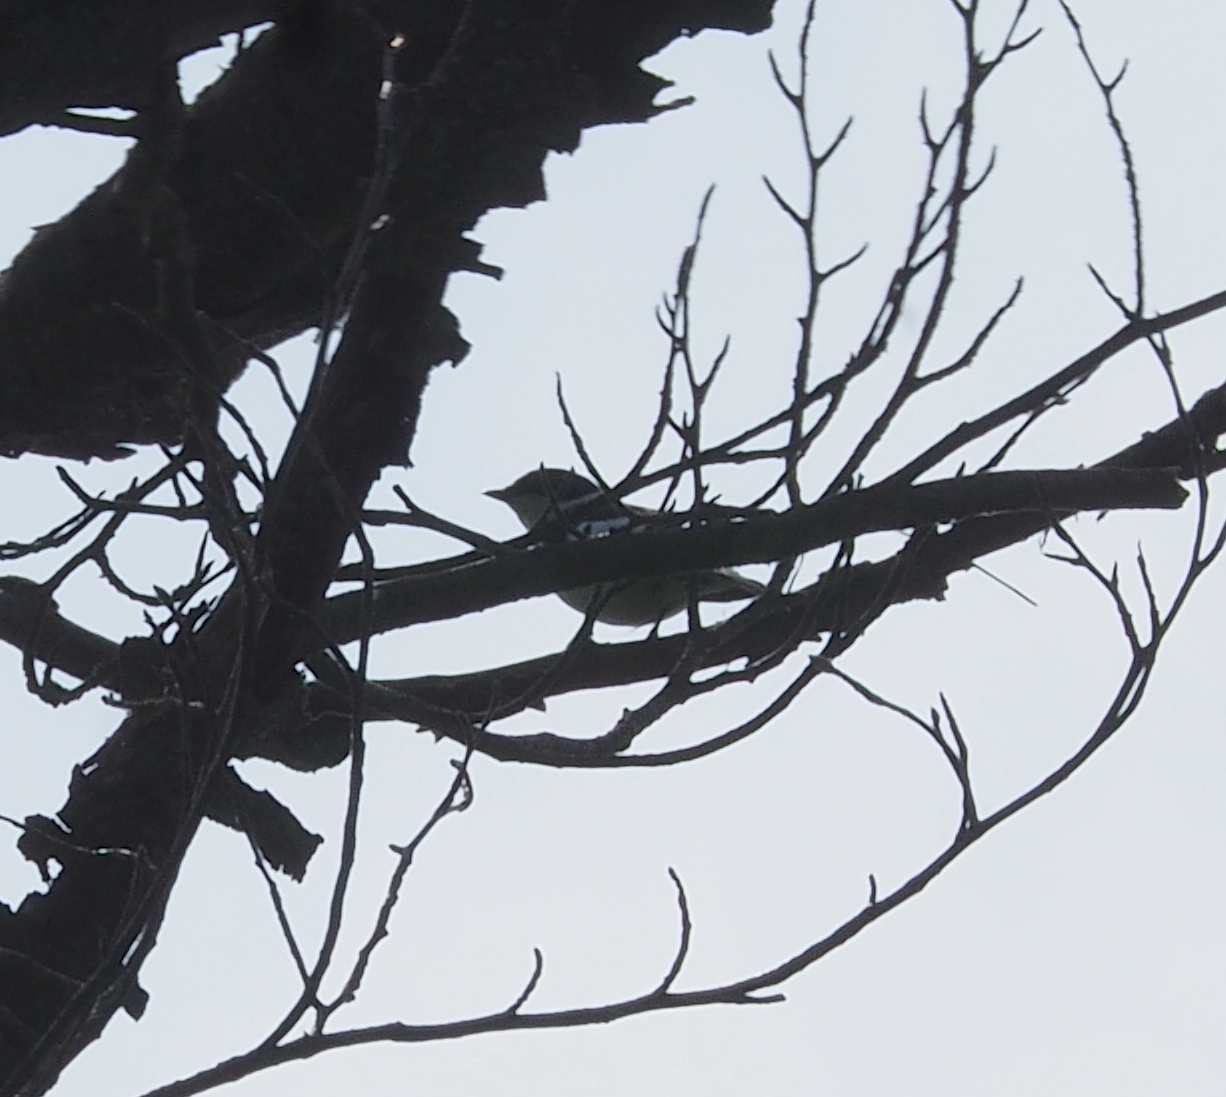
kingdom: Animalia
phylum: Chordata
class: Aves
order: Passeriformes
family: Muscicapidae
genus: Ficedula
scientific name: Ficedula albicollis
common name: Collared flycatcher
